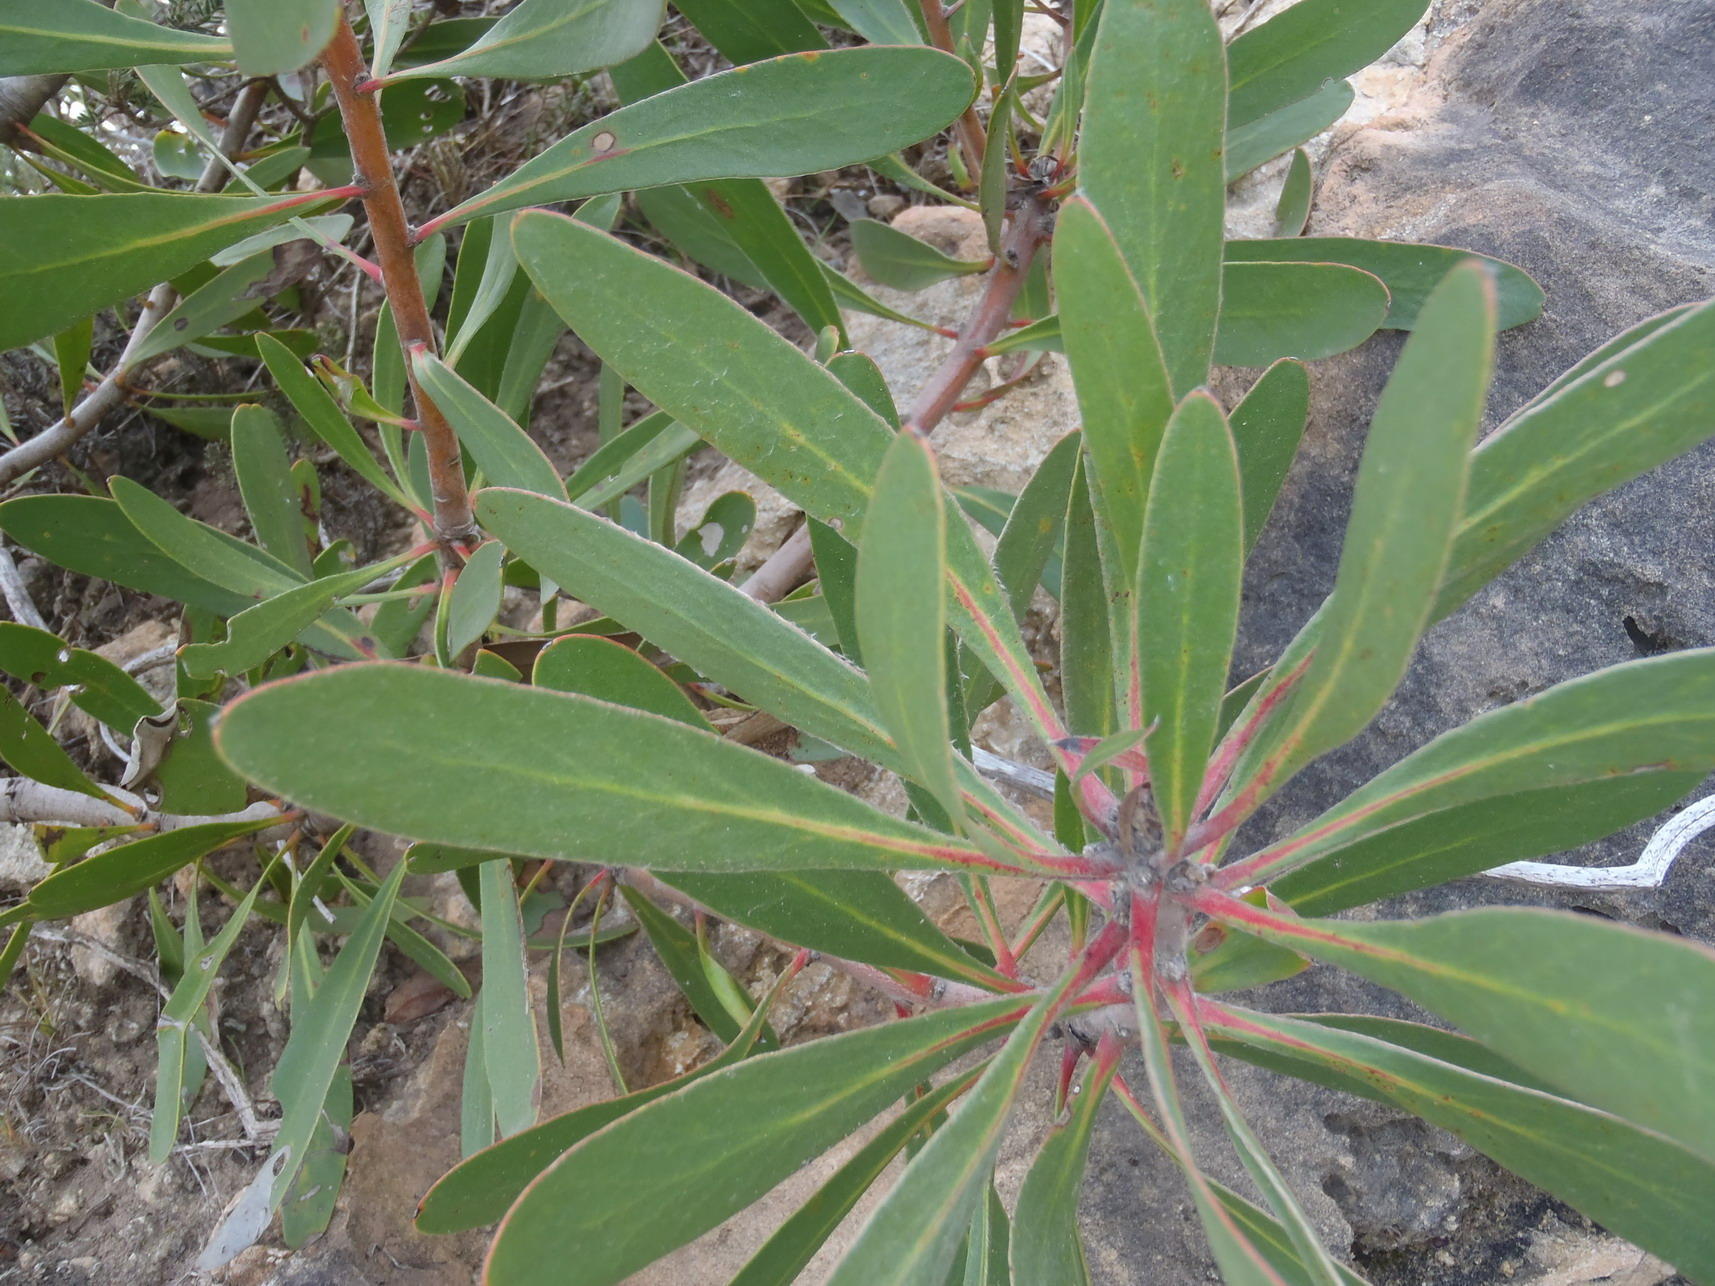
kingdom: Plantae
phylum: Tracheophyta
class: Magnoliopsida
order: Proteales
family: Proteaceae
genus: Protea
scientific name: Protea obtusifolia
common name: Bredasdorp sugarbush
